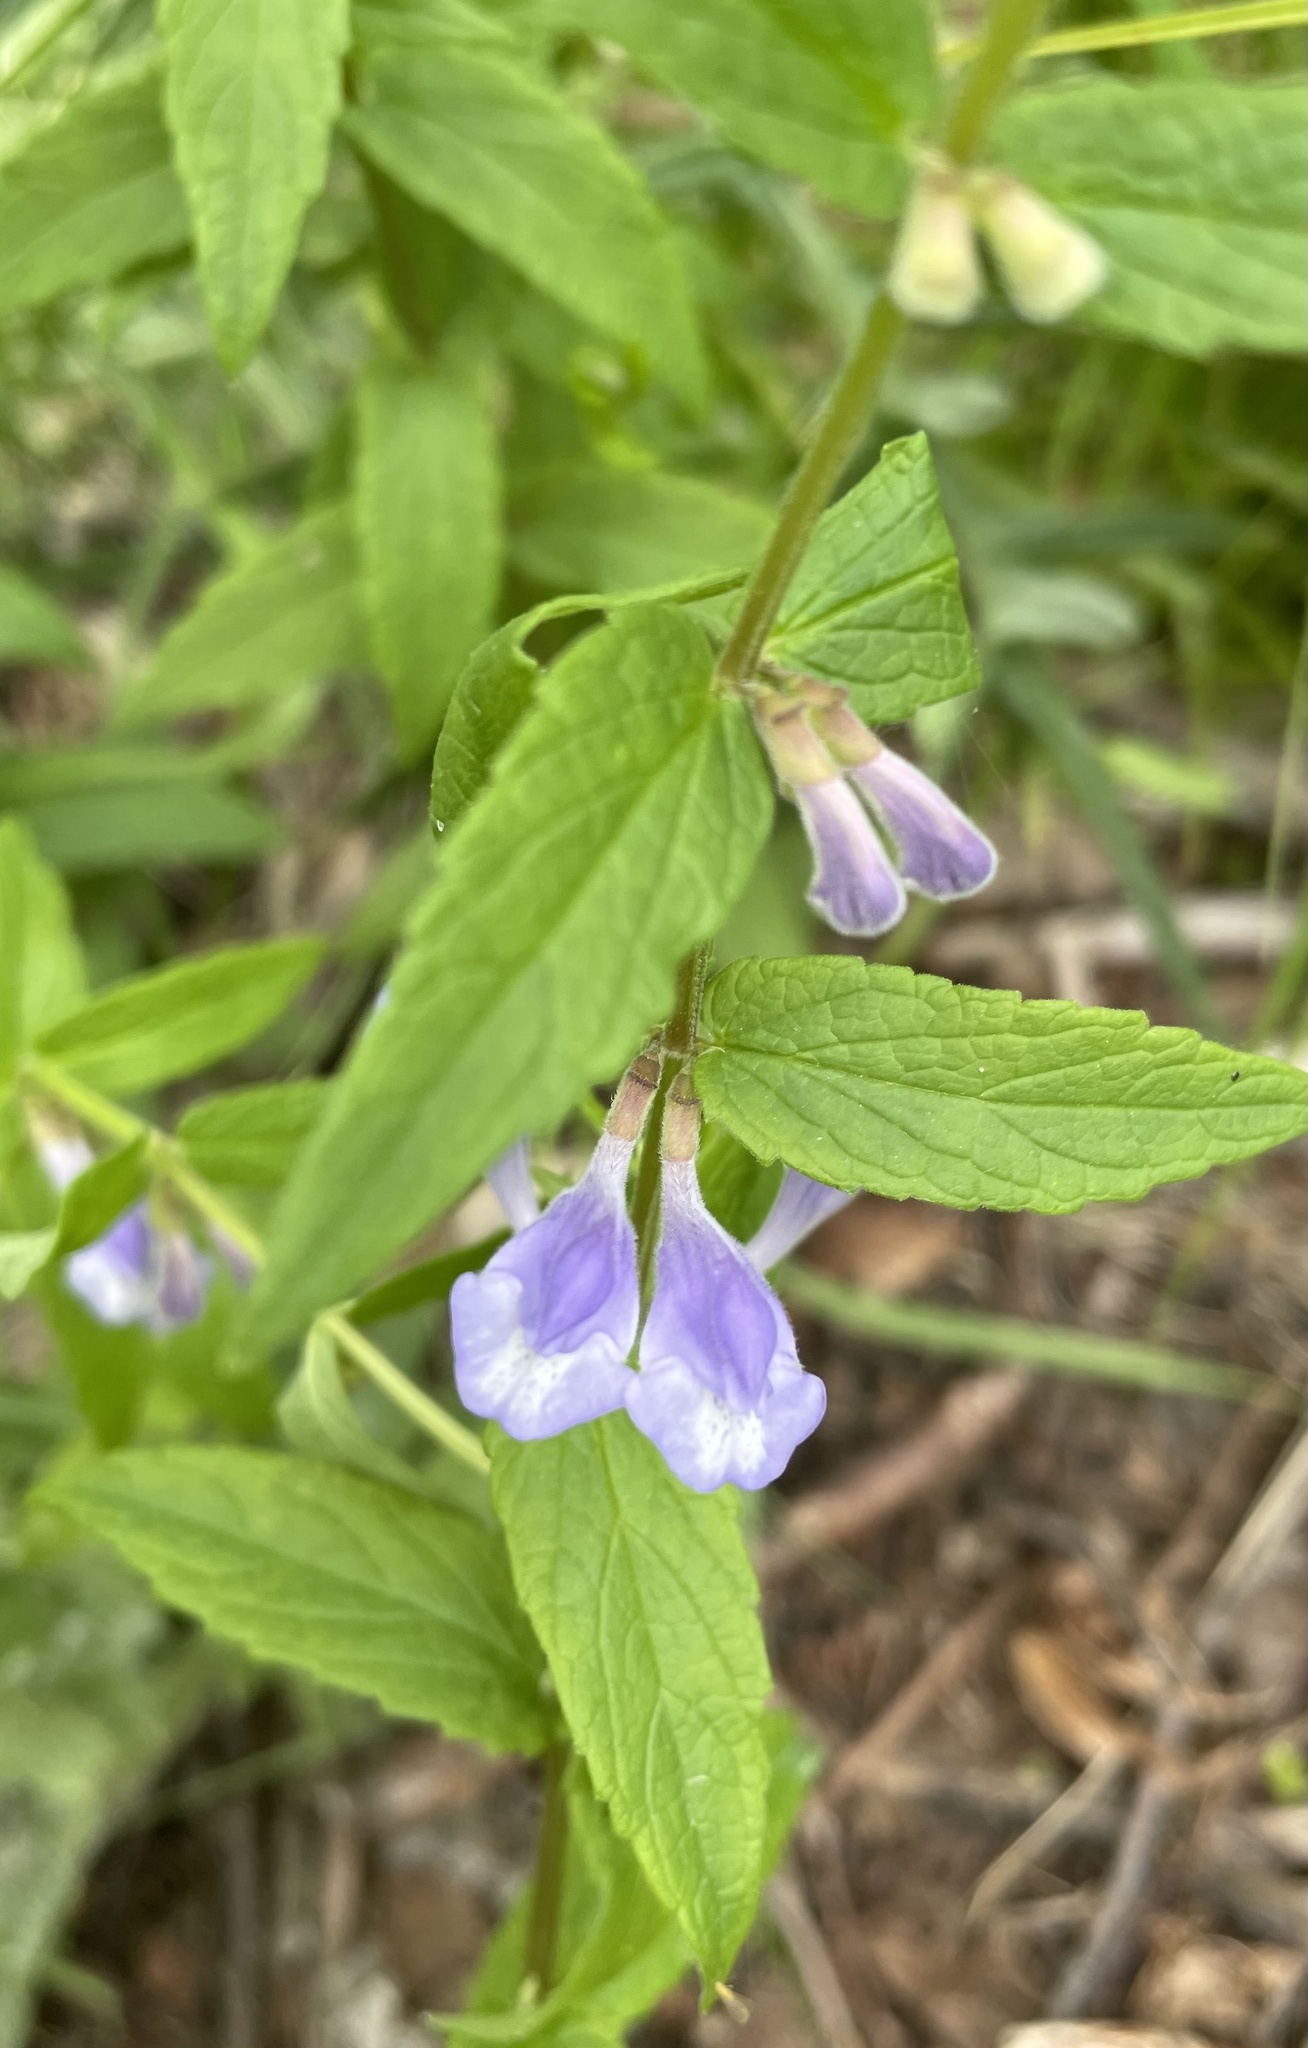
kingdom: Plantae
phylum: Tracheophyta
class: Magnoliopsida
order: Lamiales
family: Lamiaceae
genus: Scutellaria
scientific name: Scutellaria galericulata
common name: Skullcap
